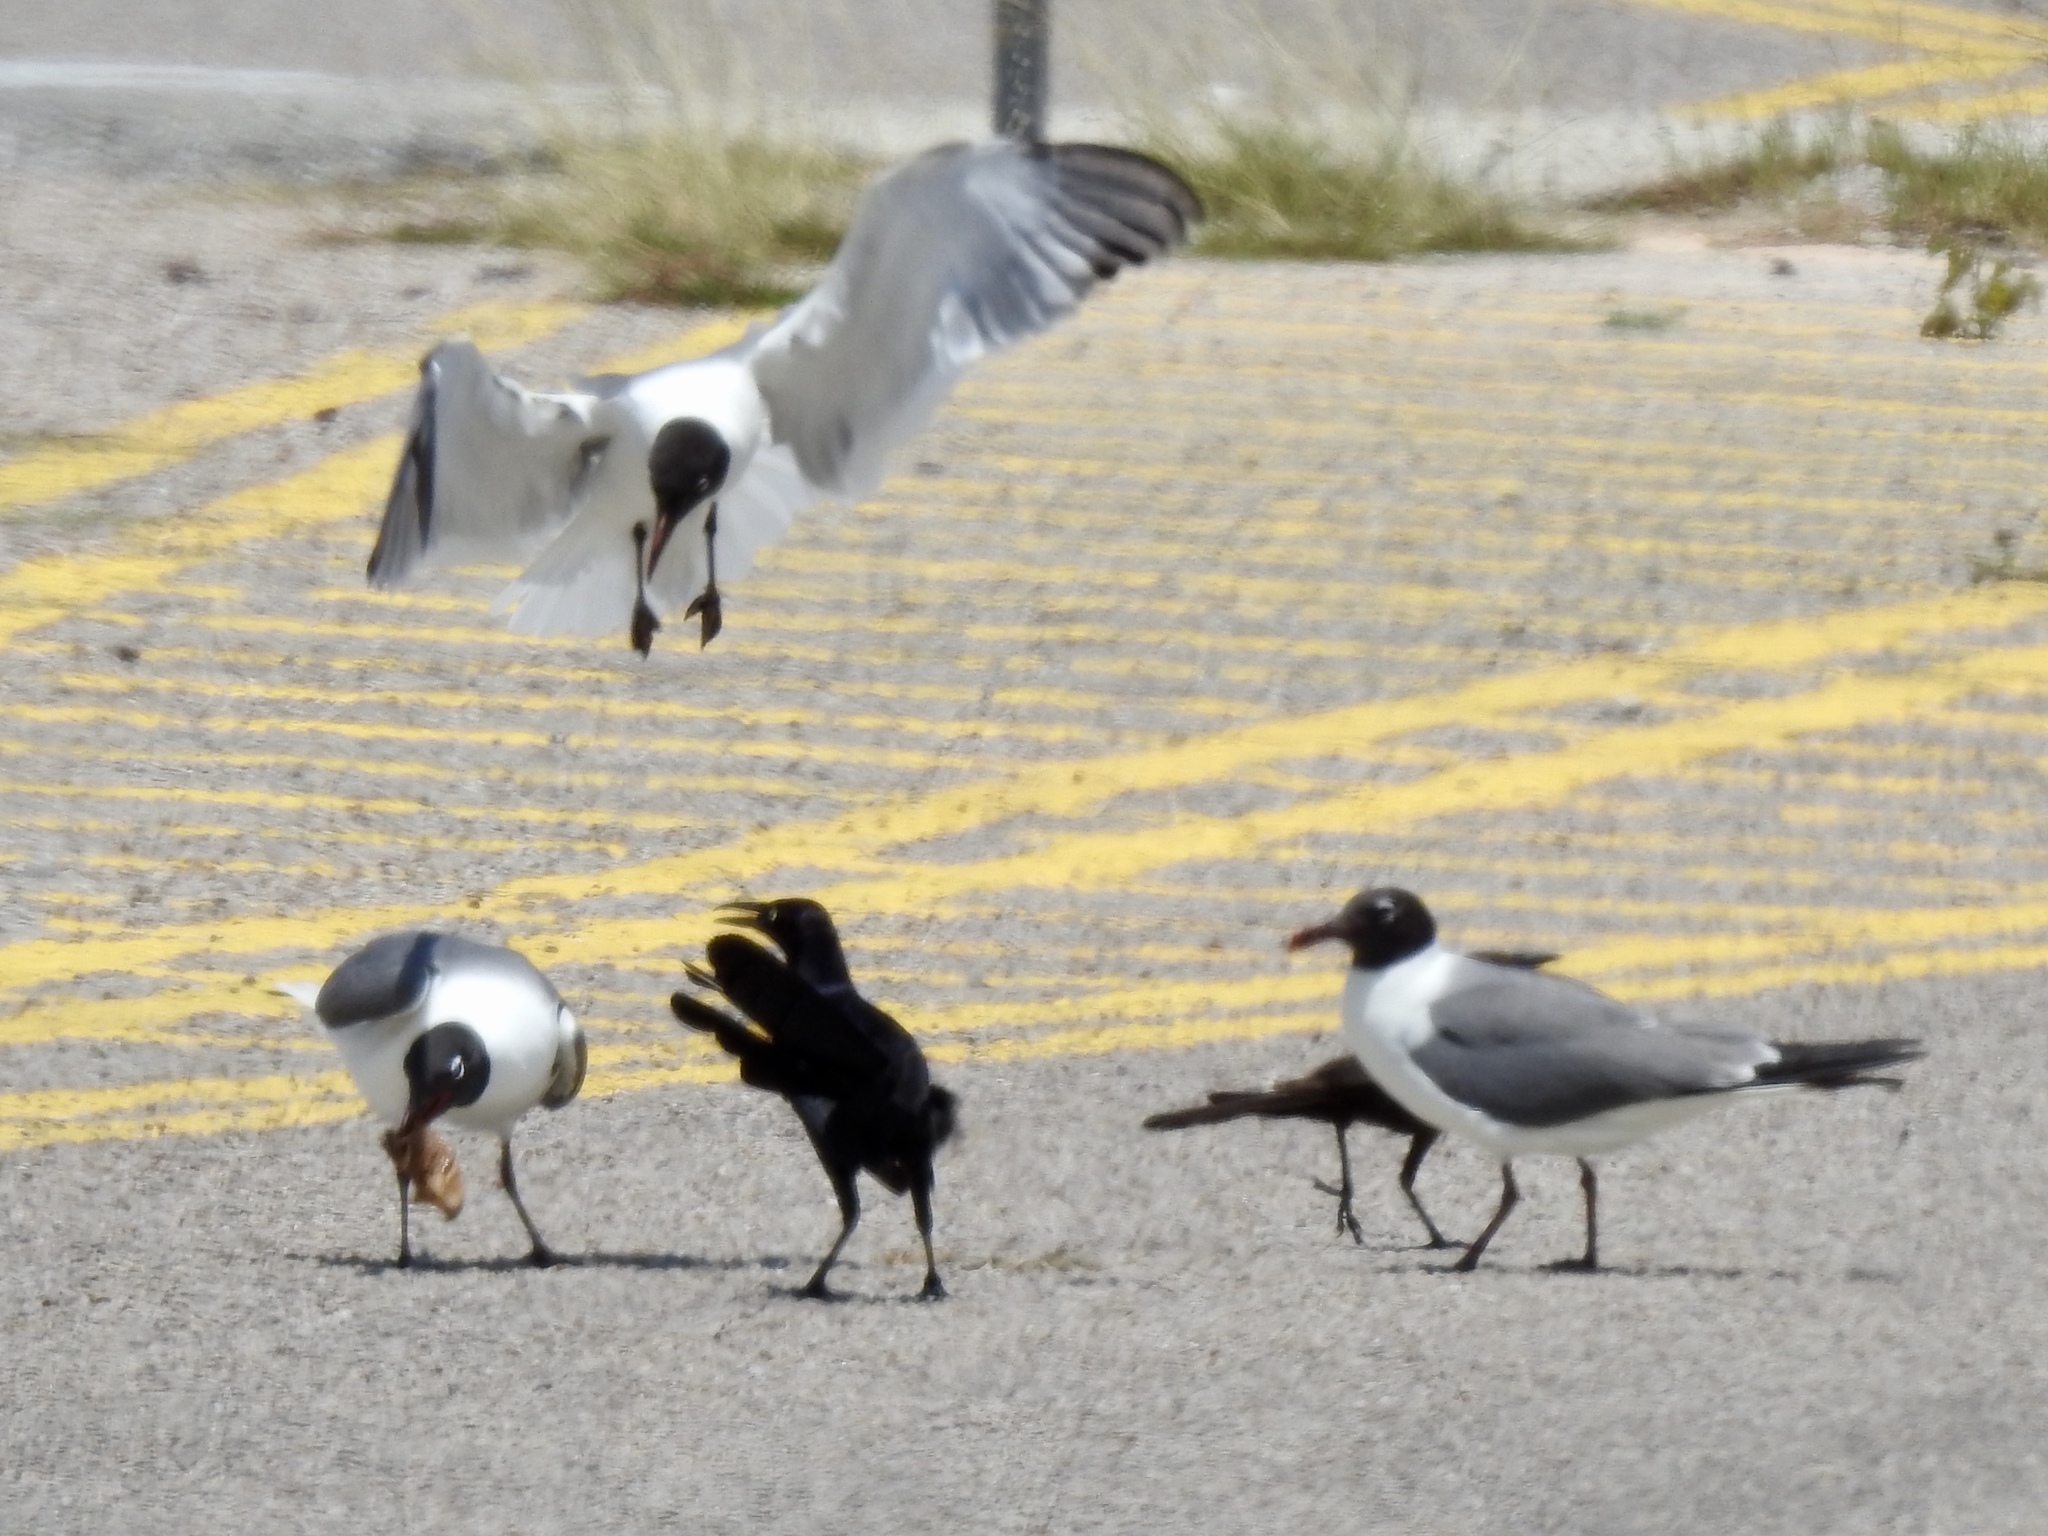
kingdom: Animalia
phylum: Chordata
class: Aves
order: Charadriiformes
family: Laridae
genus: Leucophaeus
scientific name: Leucophaeus atricilla
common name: Laughing gull
